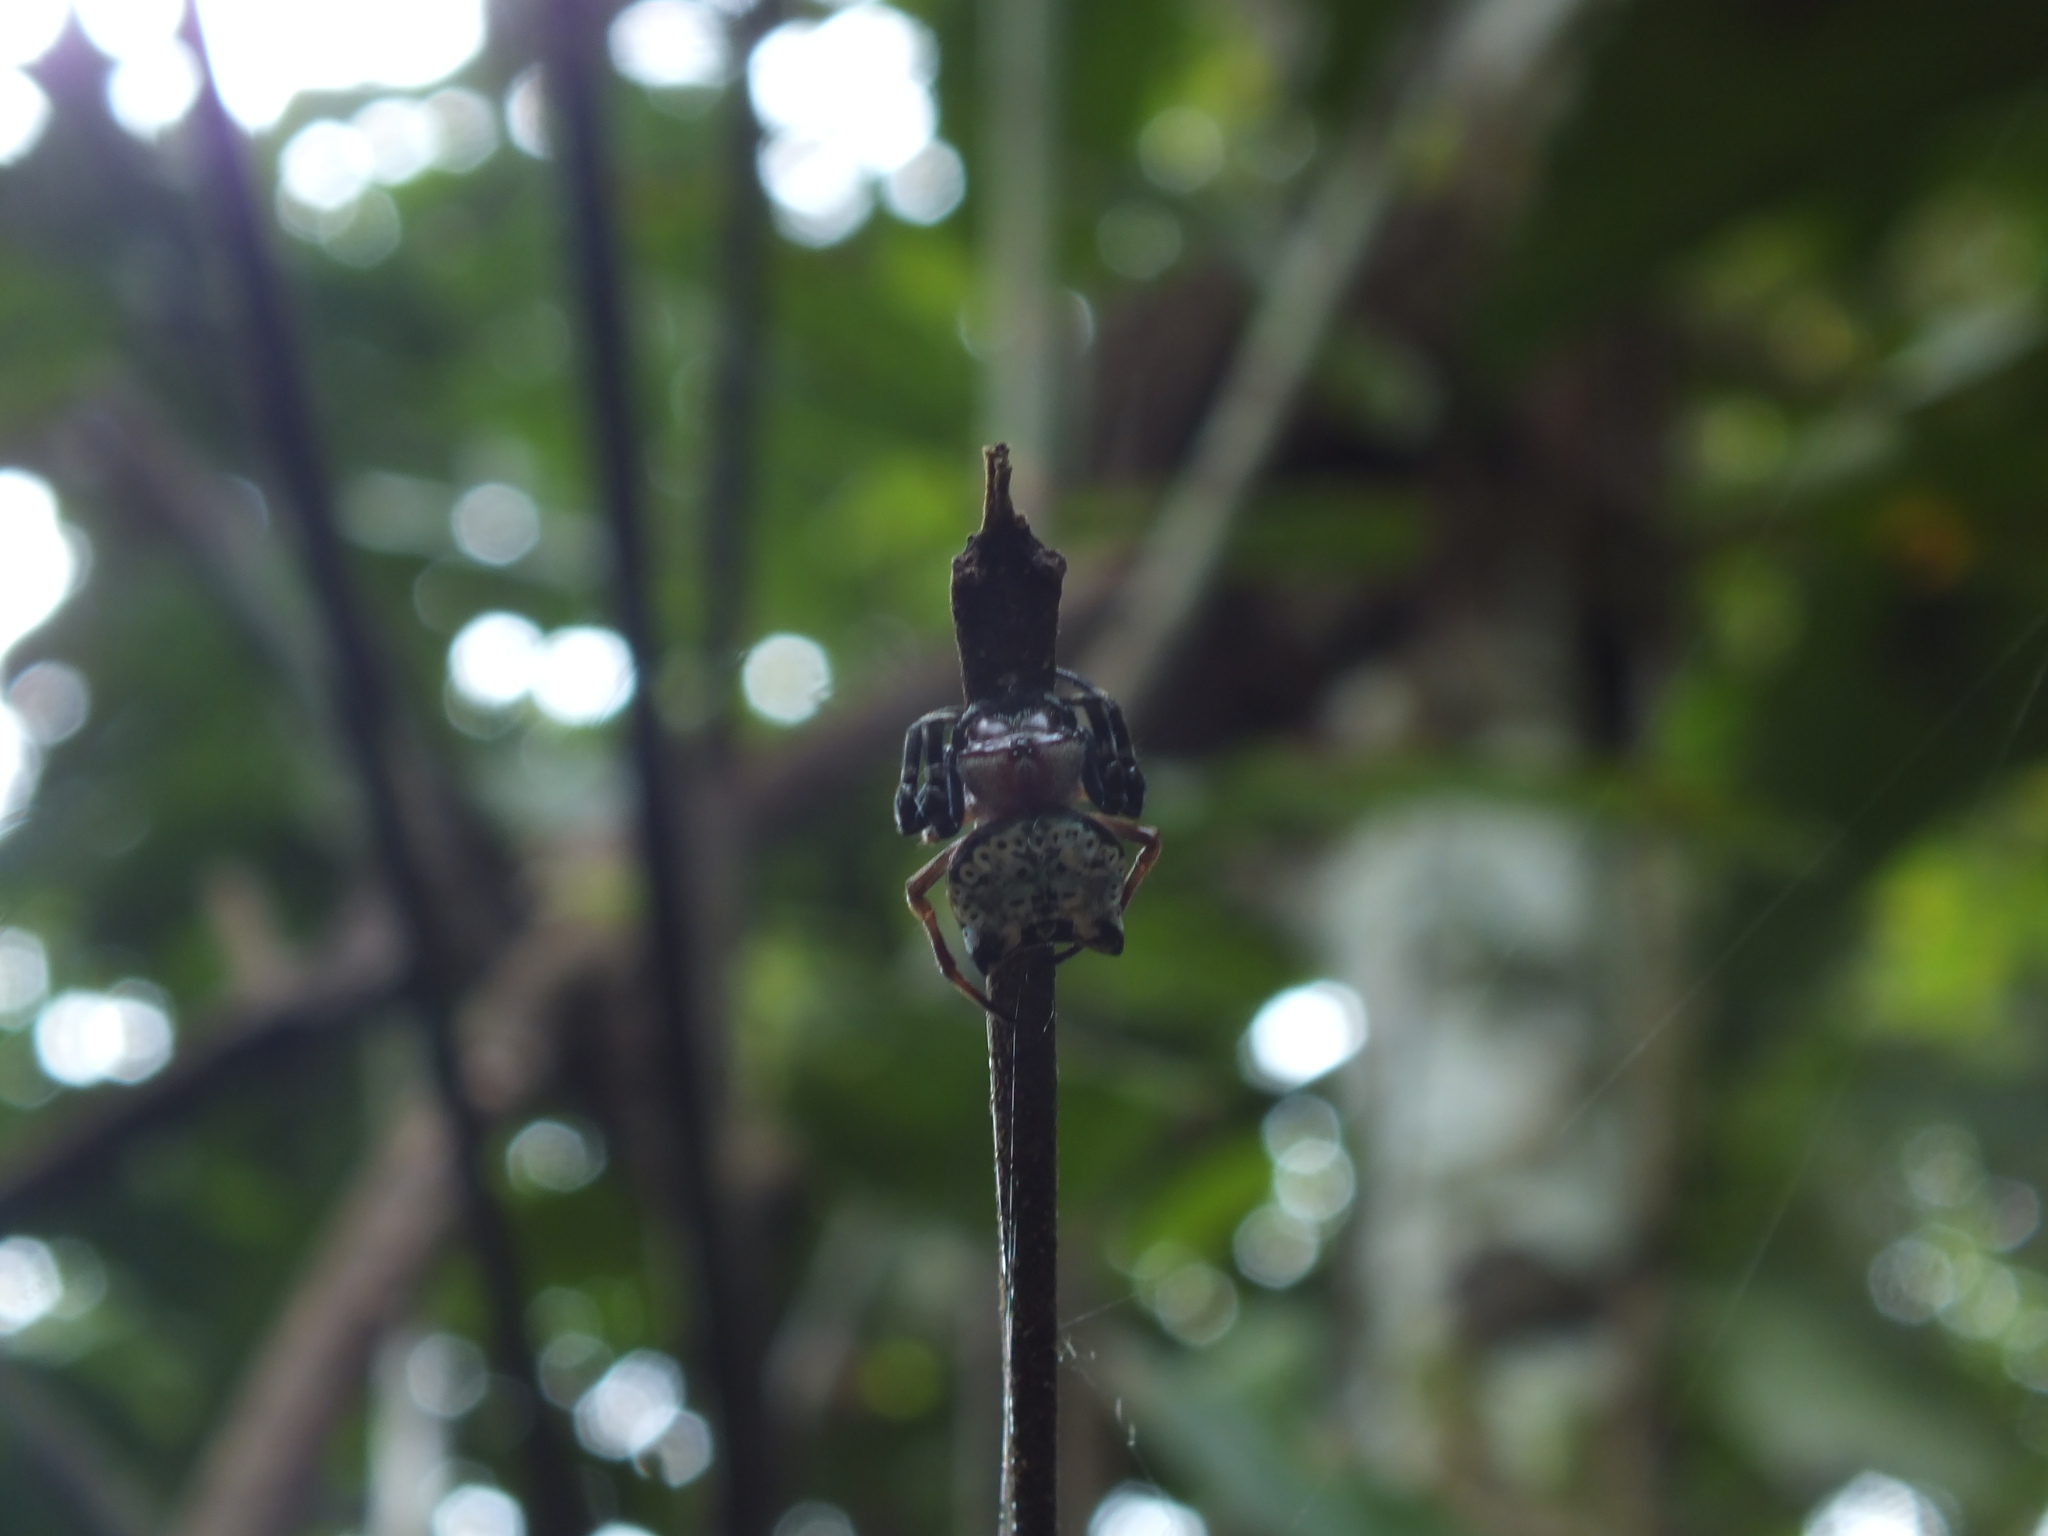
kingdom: Animalia
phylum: Arthropoda
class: Arachnida
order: Araneae
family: Araneidae
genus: Aspidolasius
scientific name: Aspidolasius branicki
